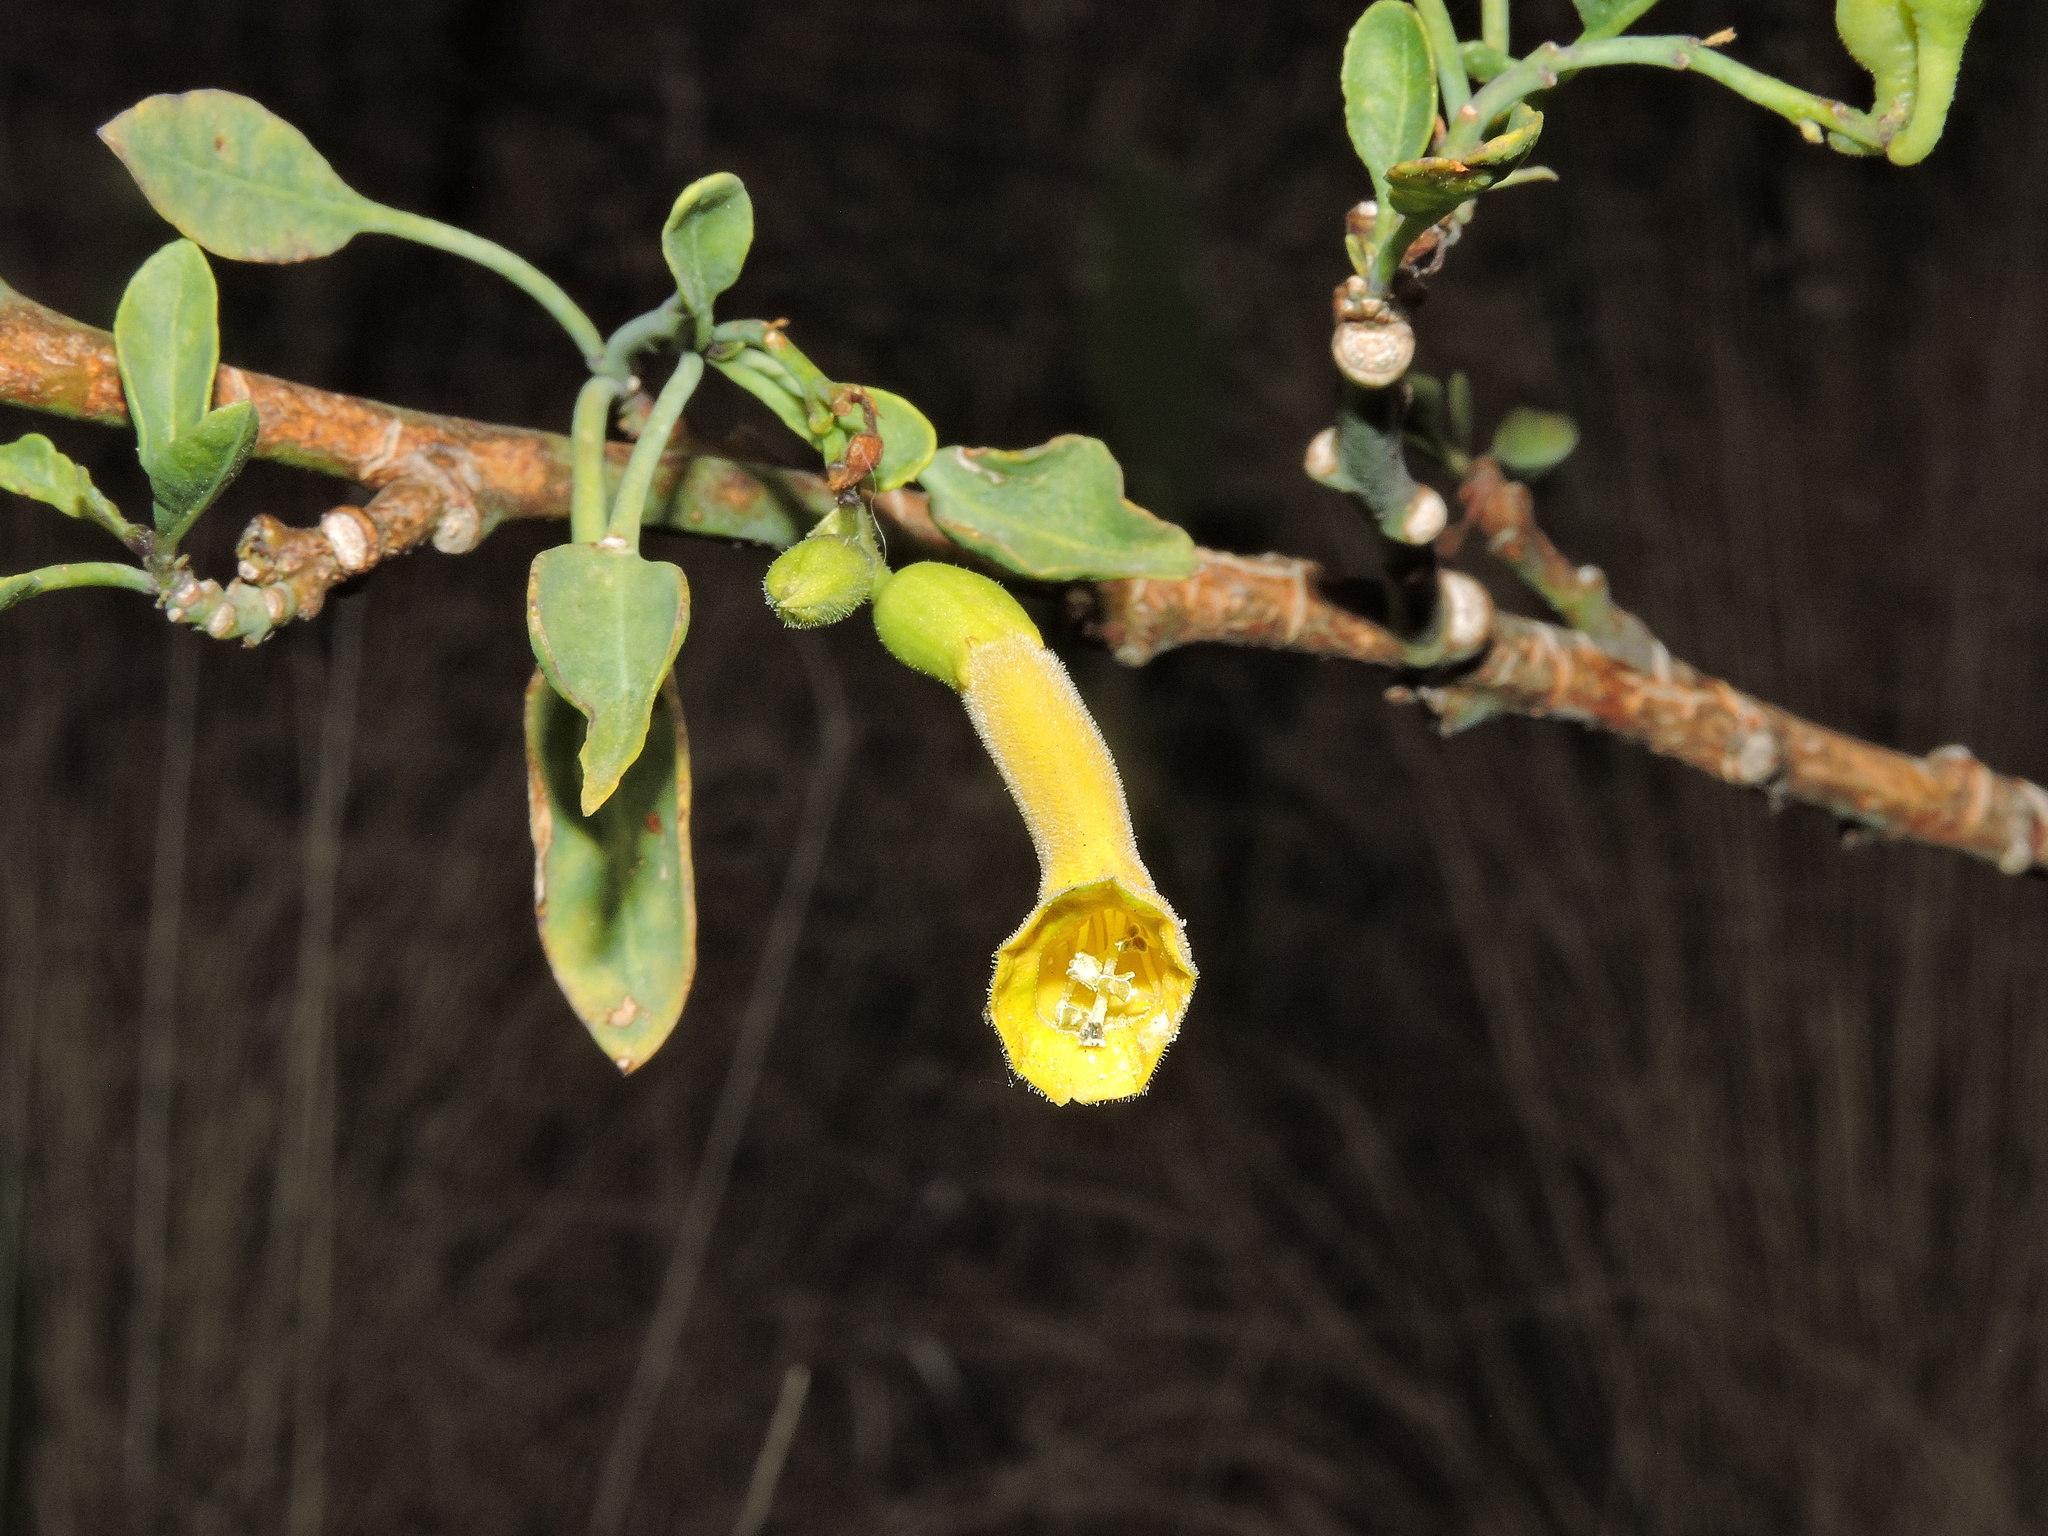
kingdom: Plantae
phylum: Tracheophyta
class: Magnoliopsida
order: Solanales
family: Solanaceae
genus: Nicotiana
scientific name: Nicotiana glauca
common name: Tree tobacco
